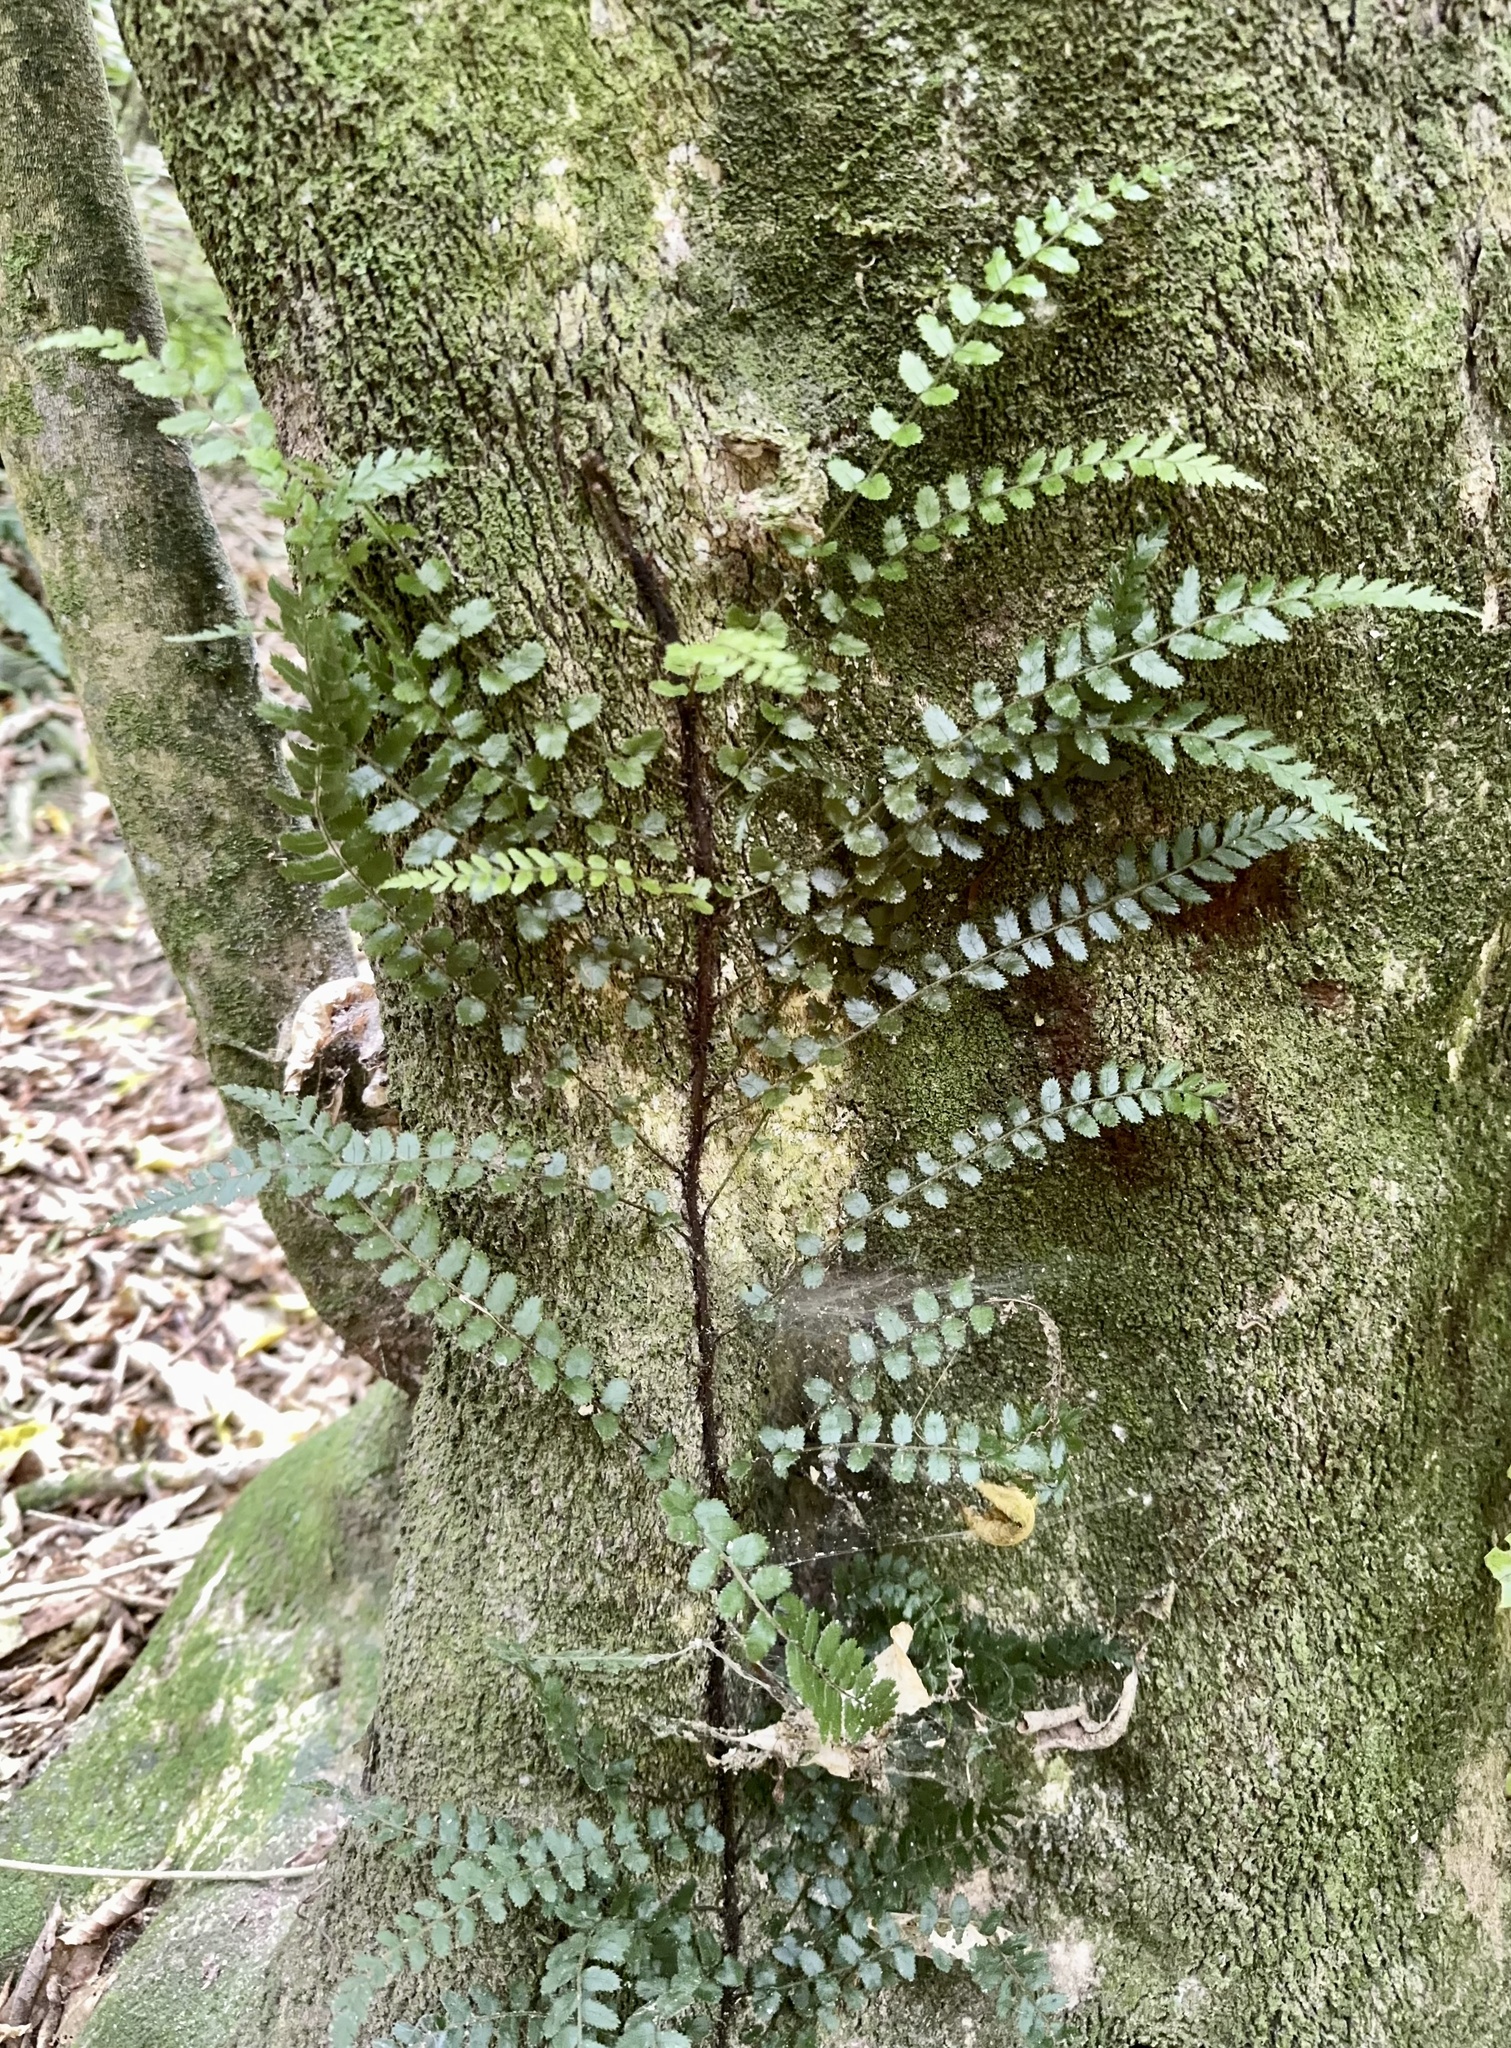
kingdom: Plantae
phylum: Tracheophyta
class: Polypodiopsida
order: Polypodiales
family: Blechnaceae
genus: Icarus
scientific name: Icarus filiformis
